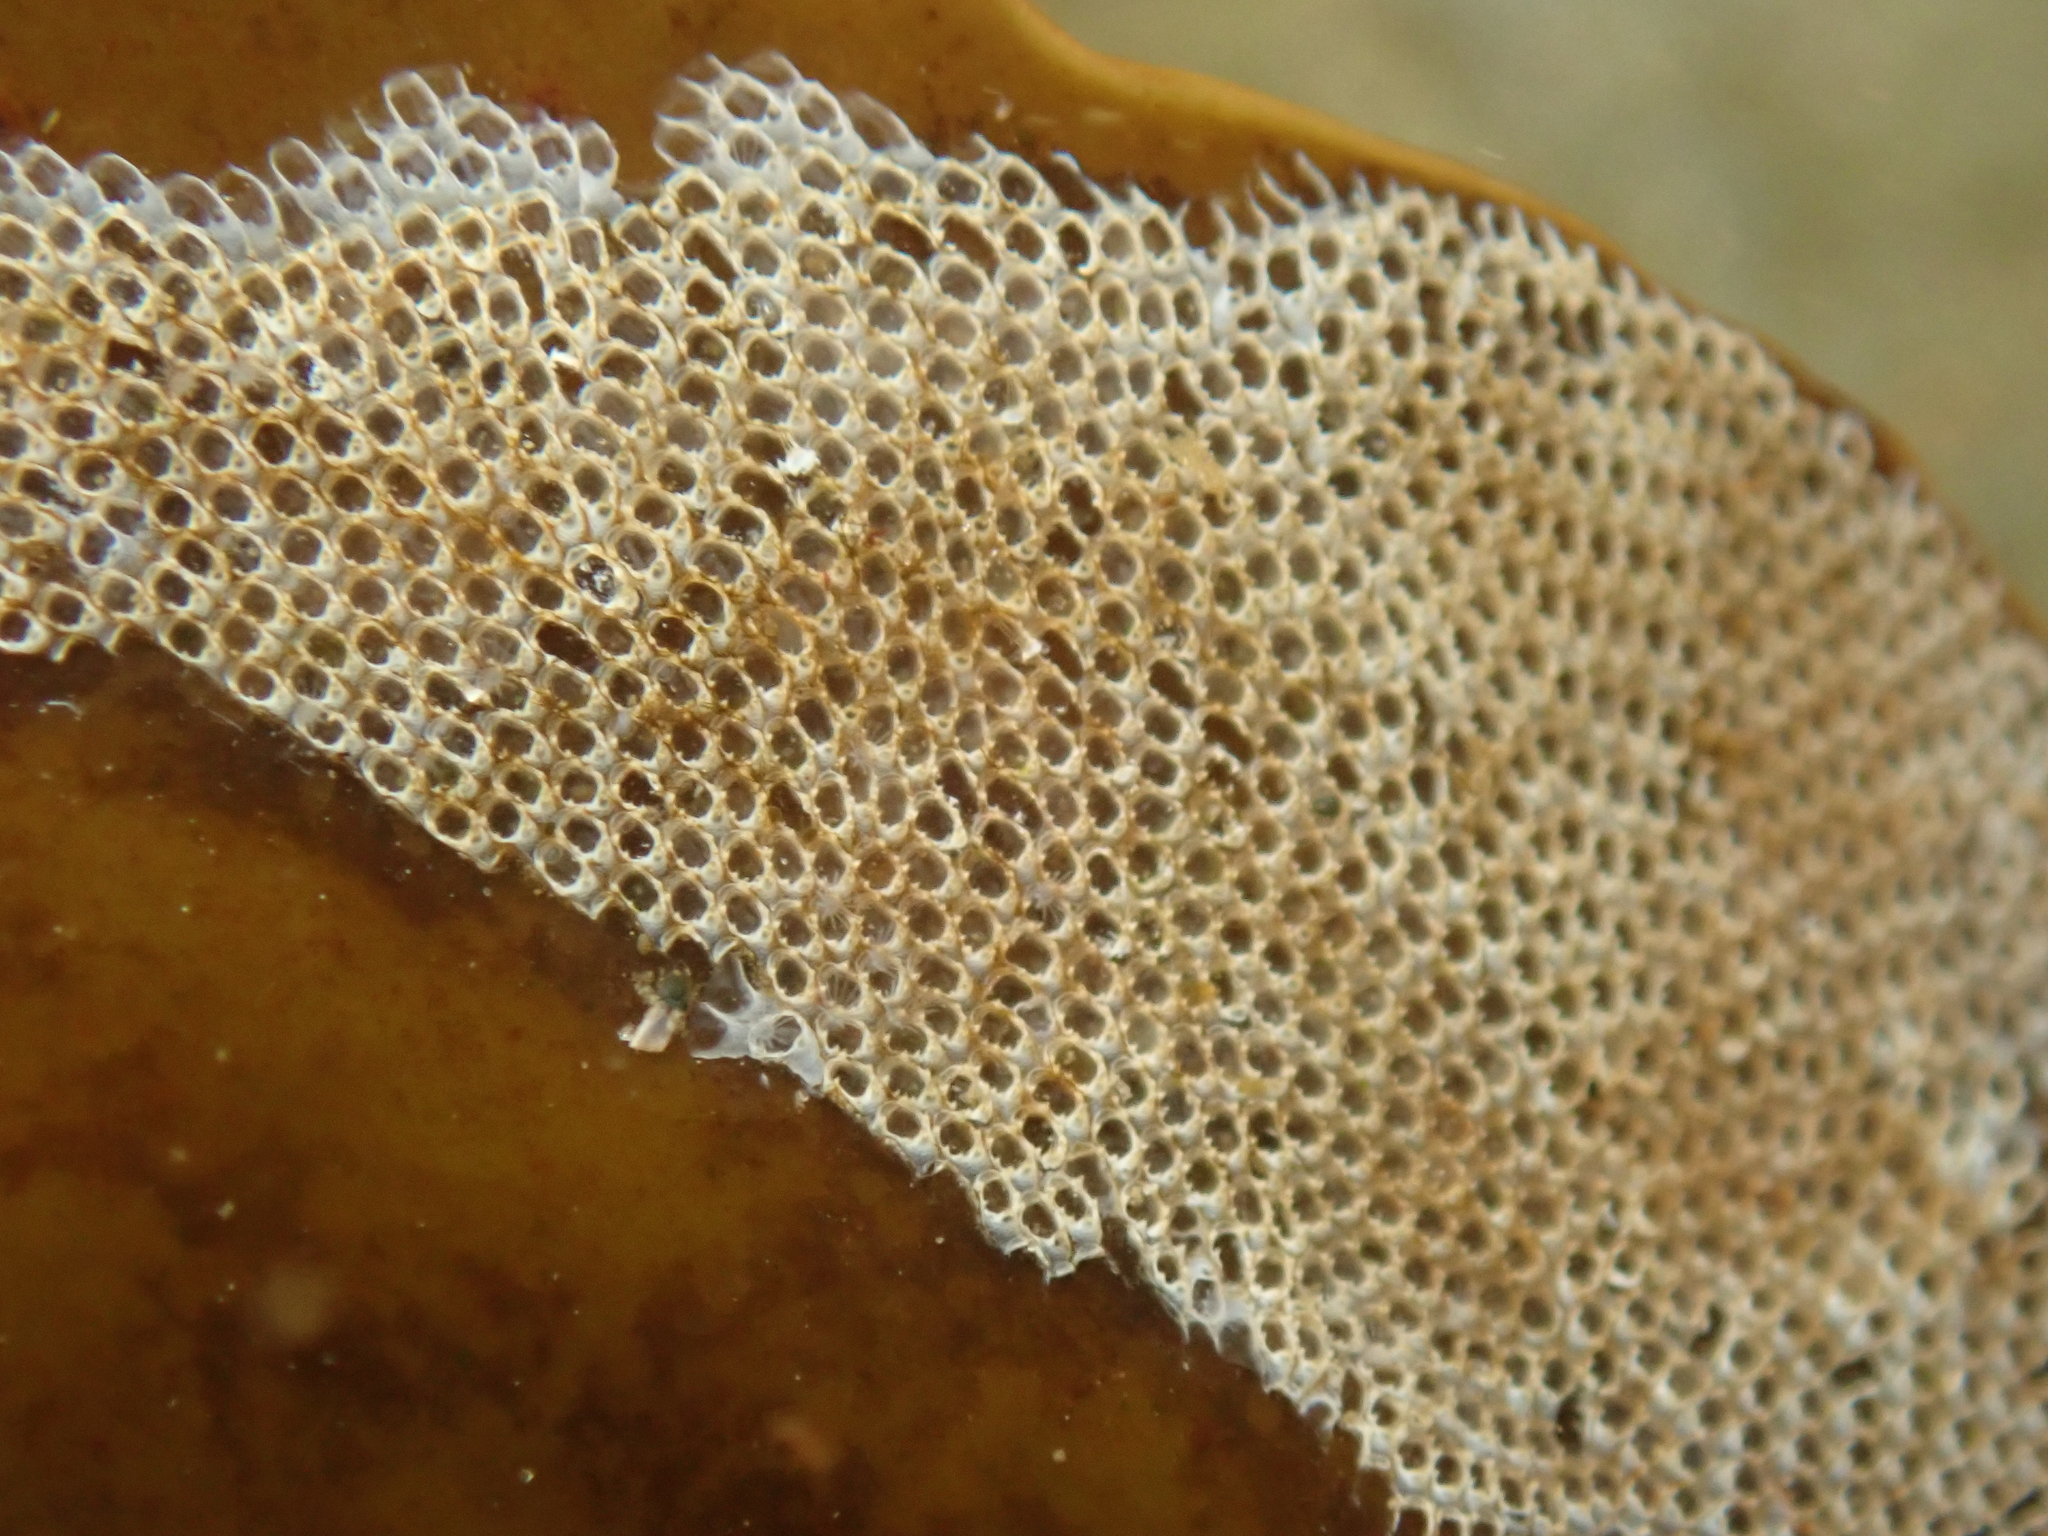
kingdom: Animalia
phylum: Bryozoa
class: Gymnolaemata
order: Cheilostomatida
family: Electridae
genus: Electra
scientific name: Electra pilosa
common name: Hairy sea-mat
